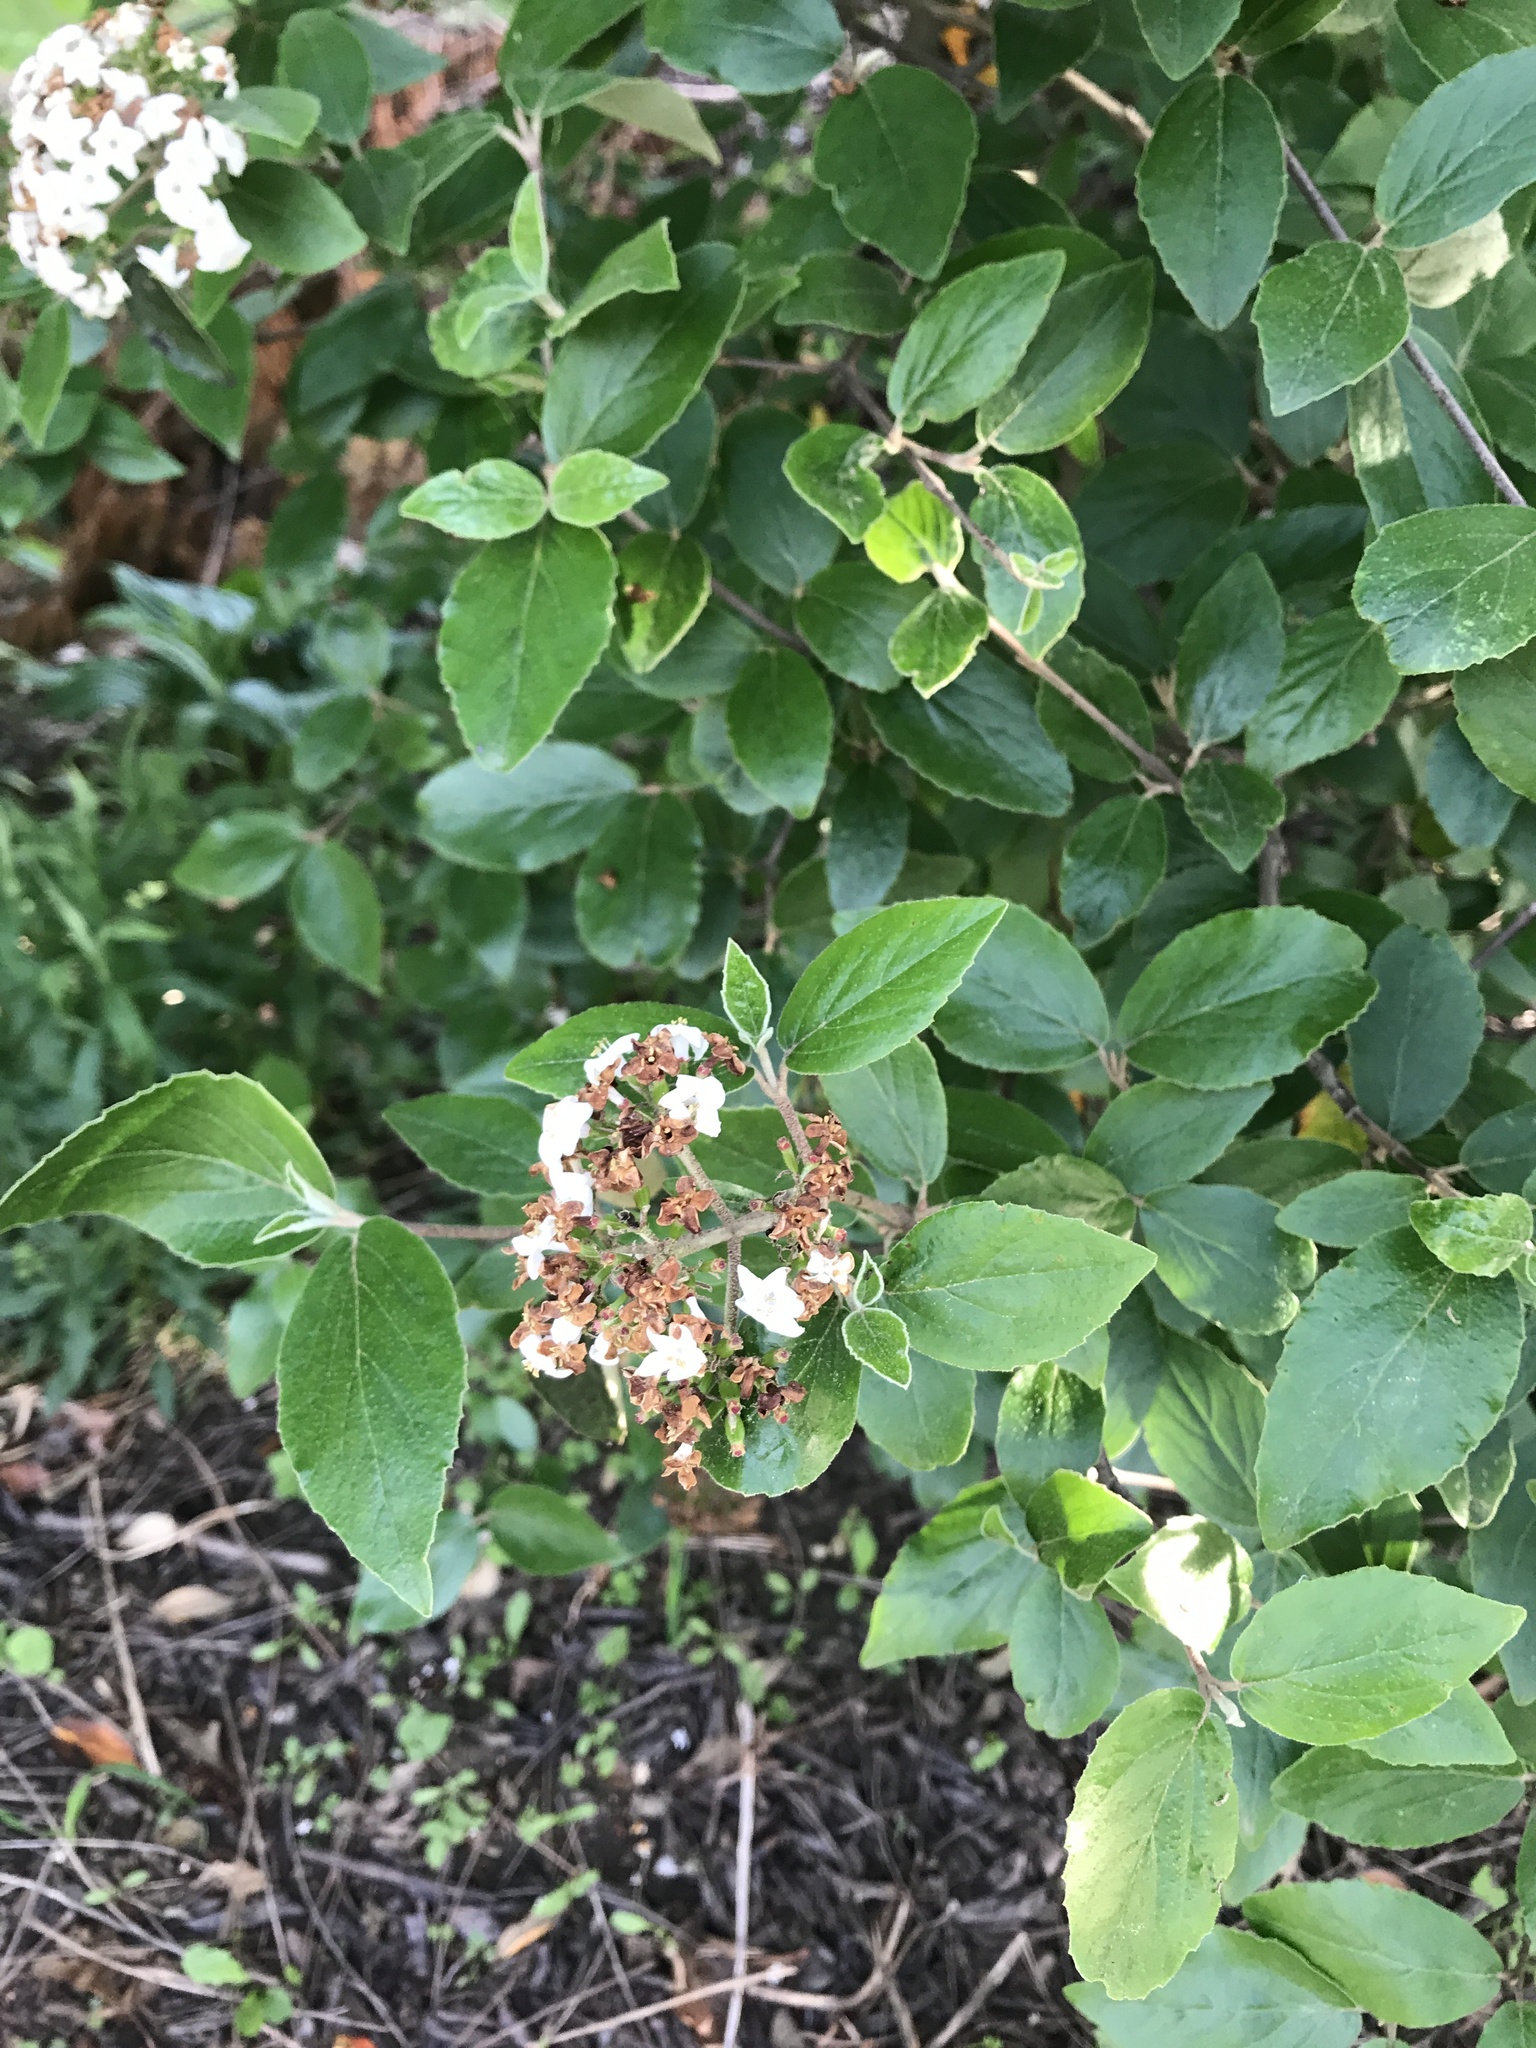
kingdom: Plantae
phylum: Tracheophyta
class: Magnoliopsida
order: Dipsacales
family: Viburnaceae
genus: Viburnum
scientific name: Viburnum carlesii
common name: Koreanspice viburnum
